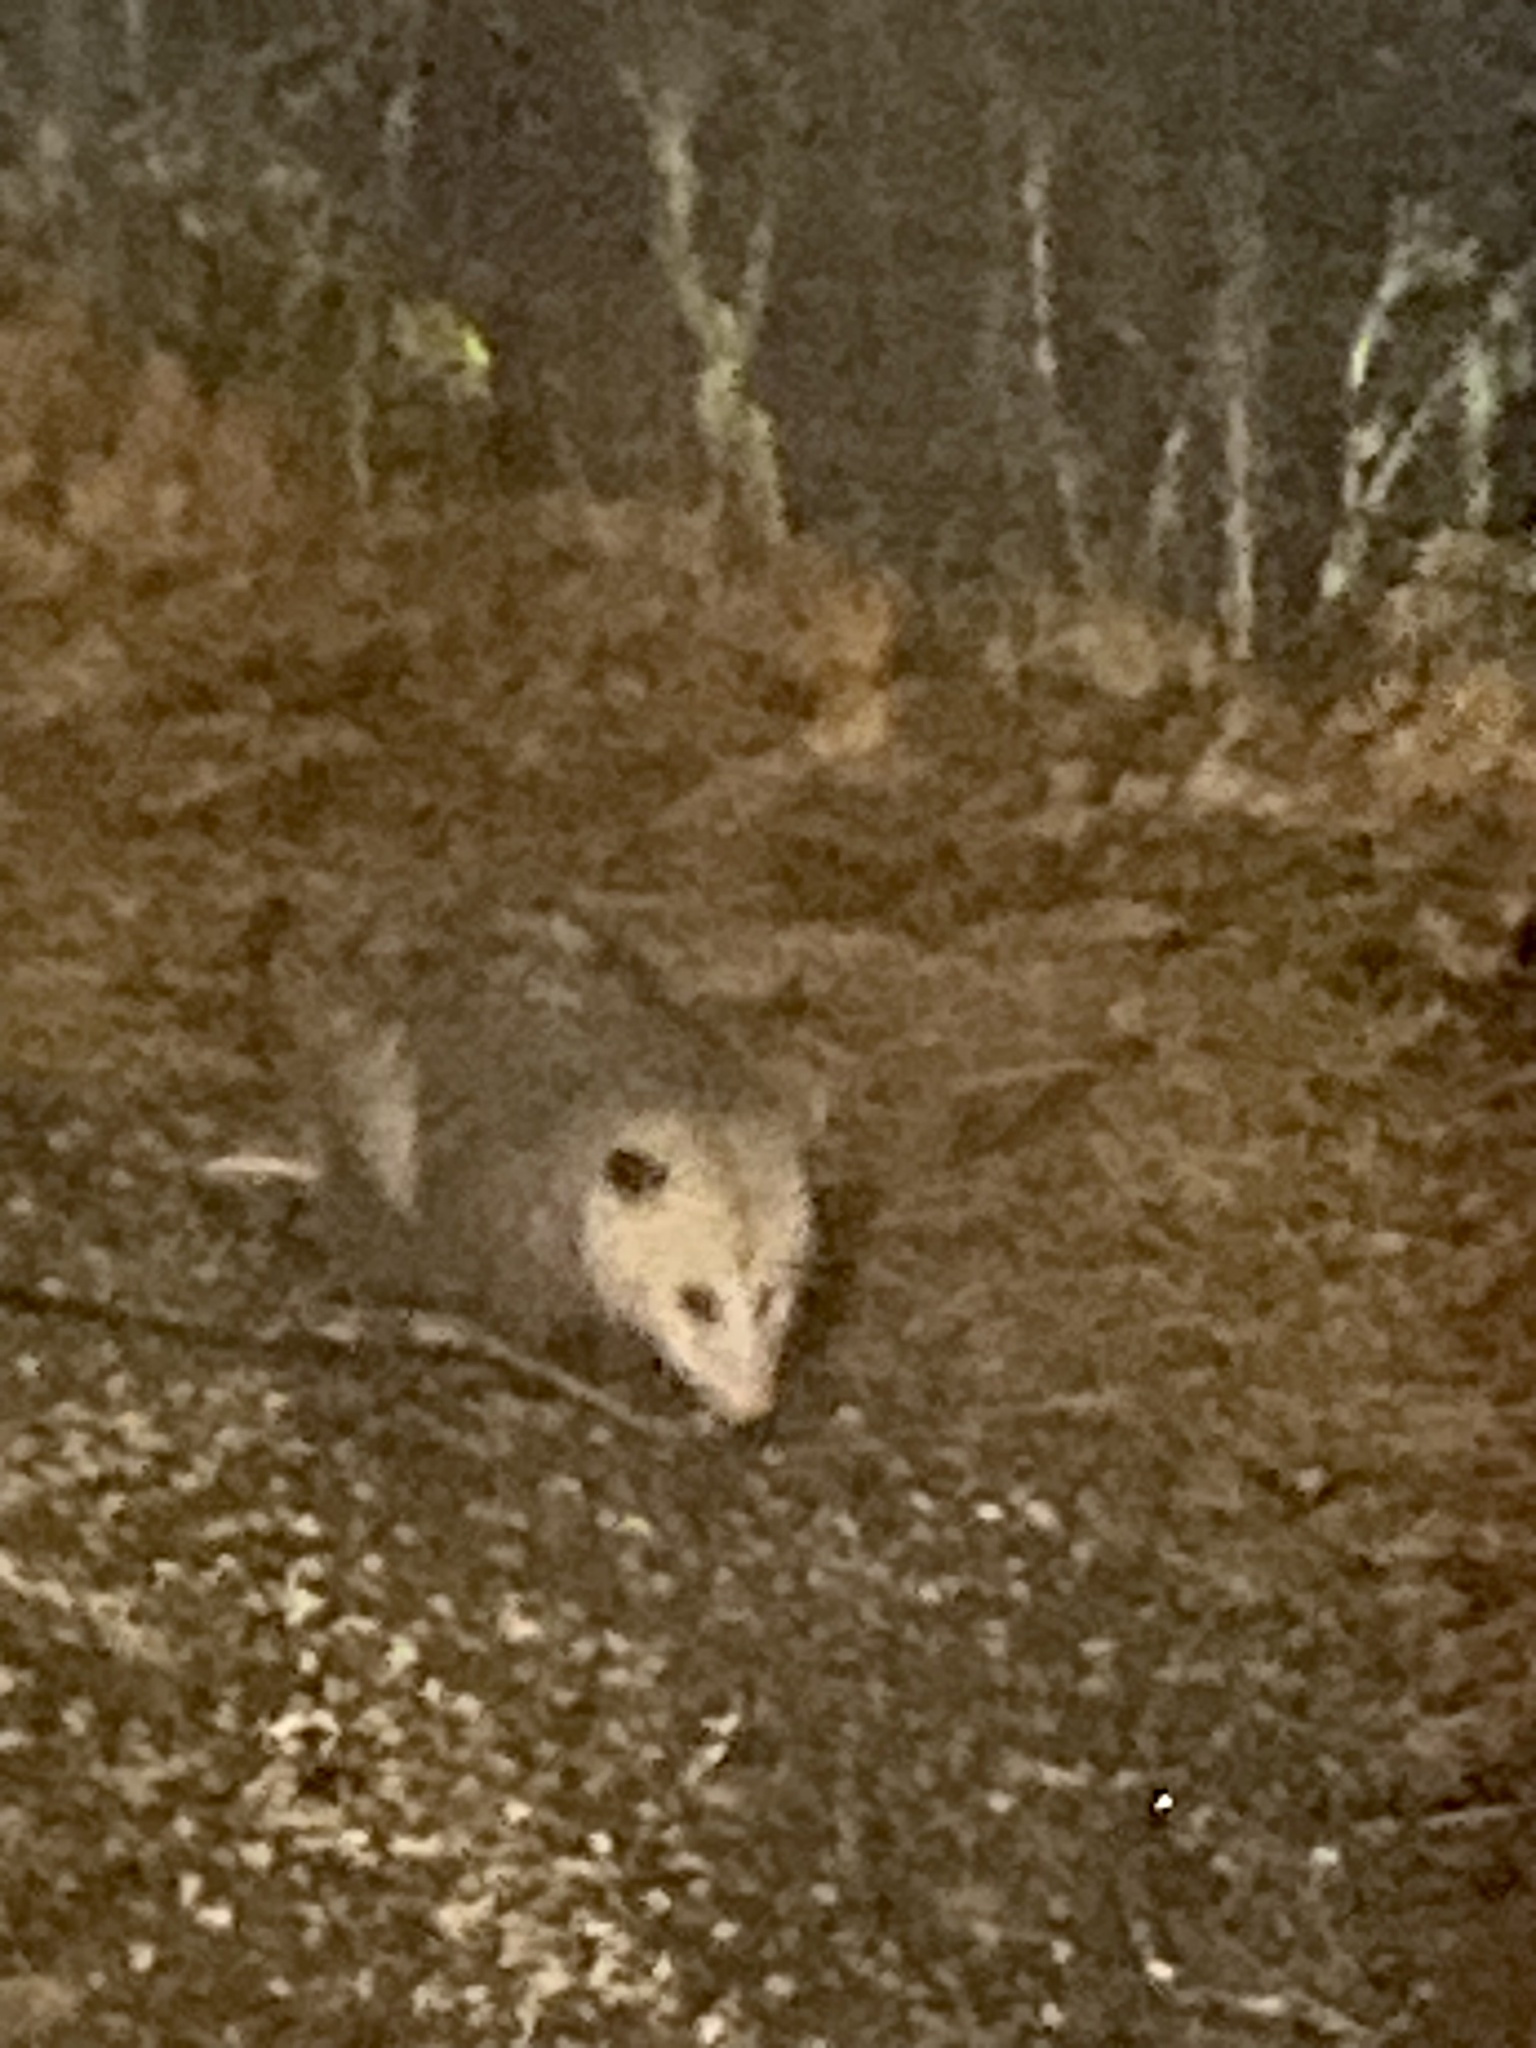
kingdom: Animalia
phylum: Chordata
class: Mammalia
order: Didelphimorphia
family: Didelphidae
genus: Didelphis
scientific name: Didelphis virginiana
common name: Virginia opossum
